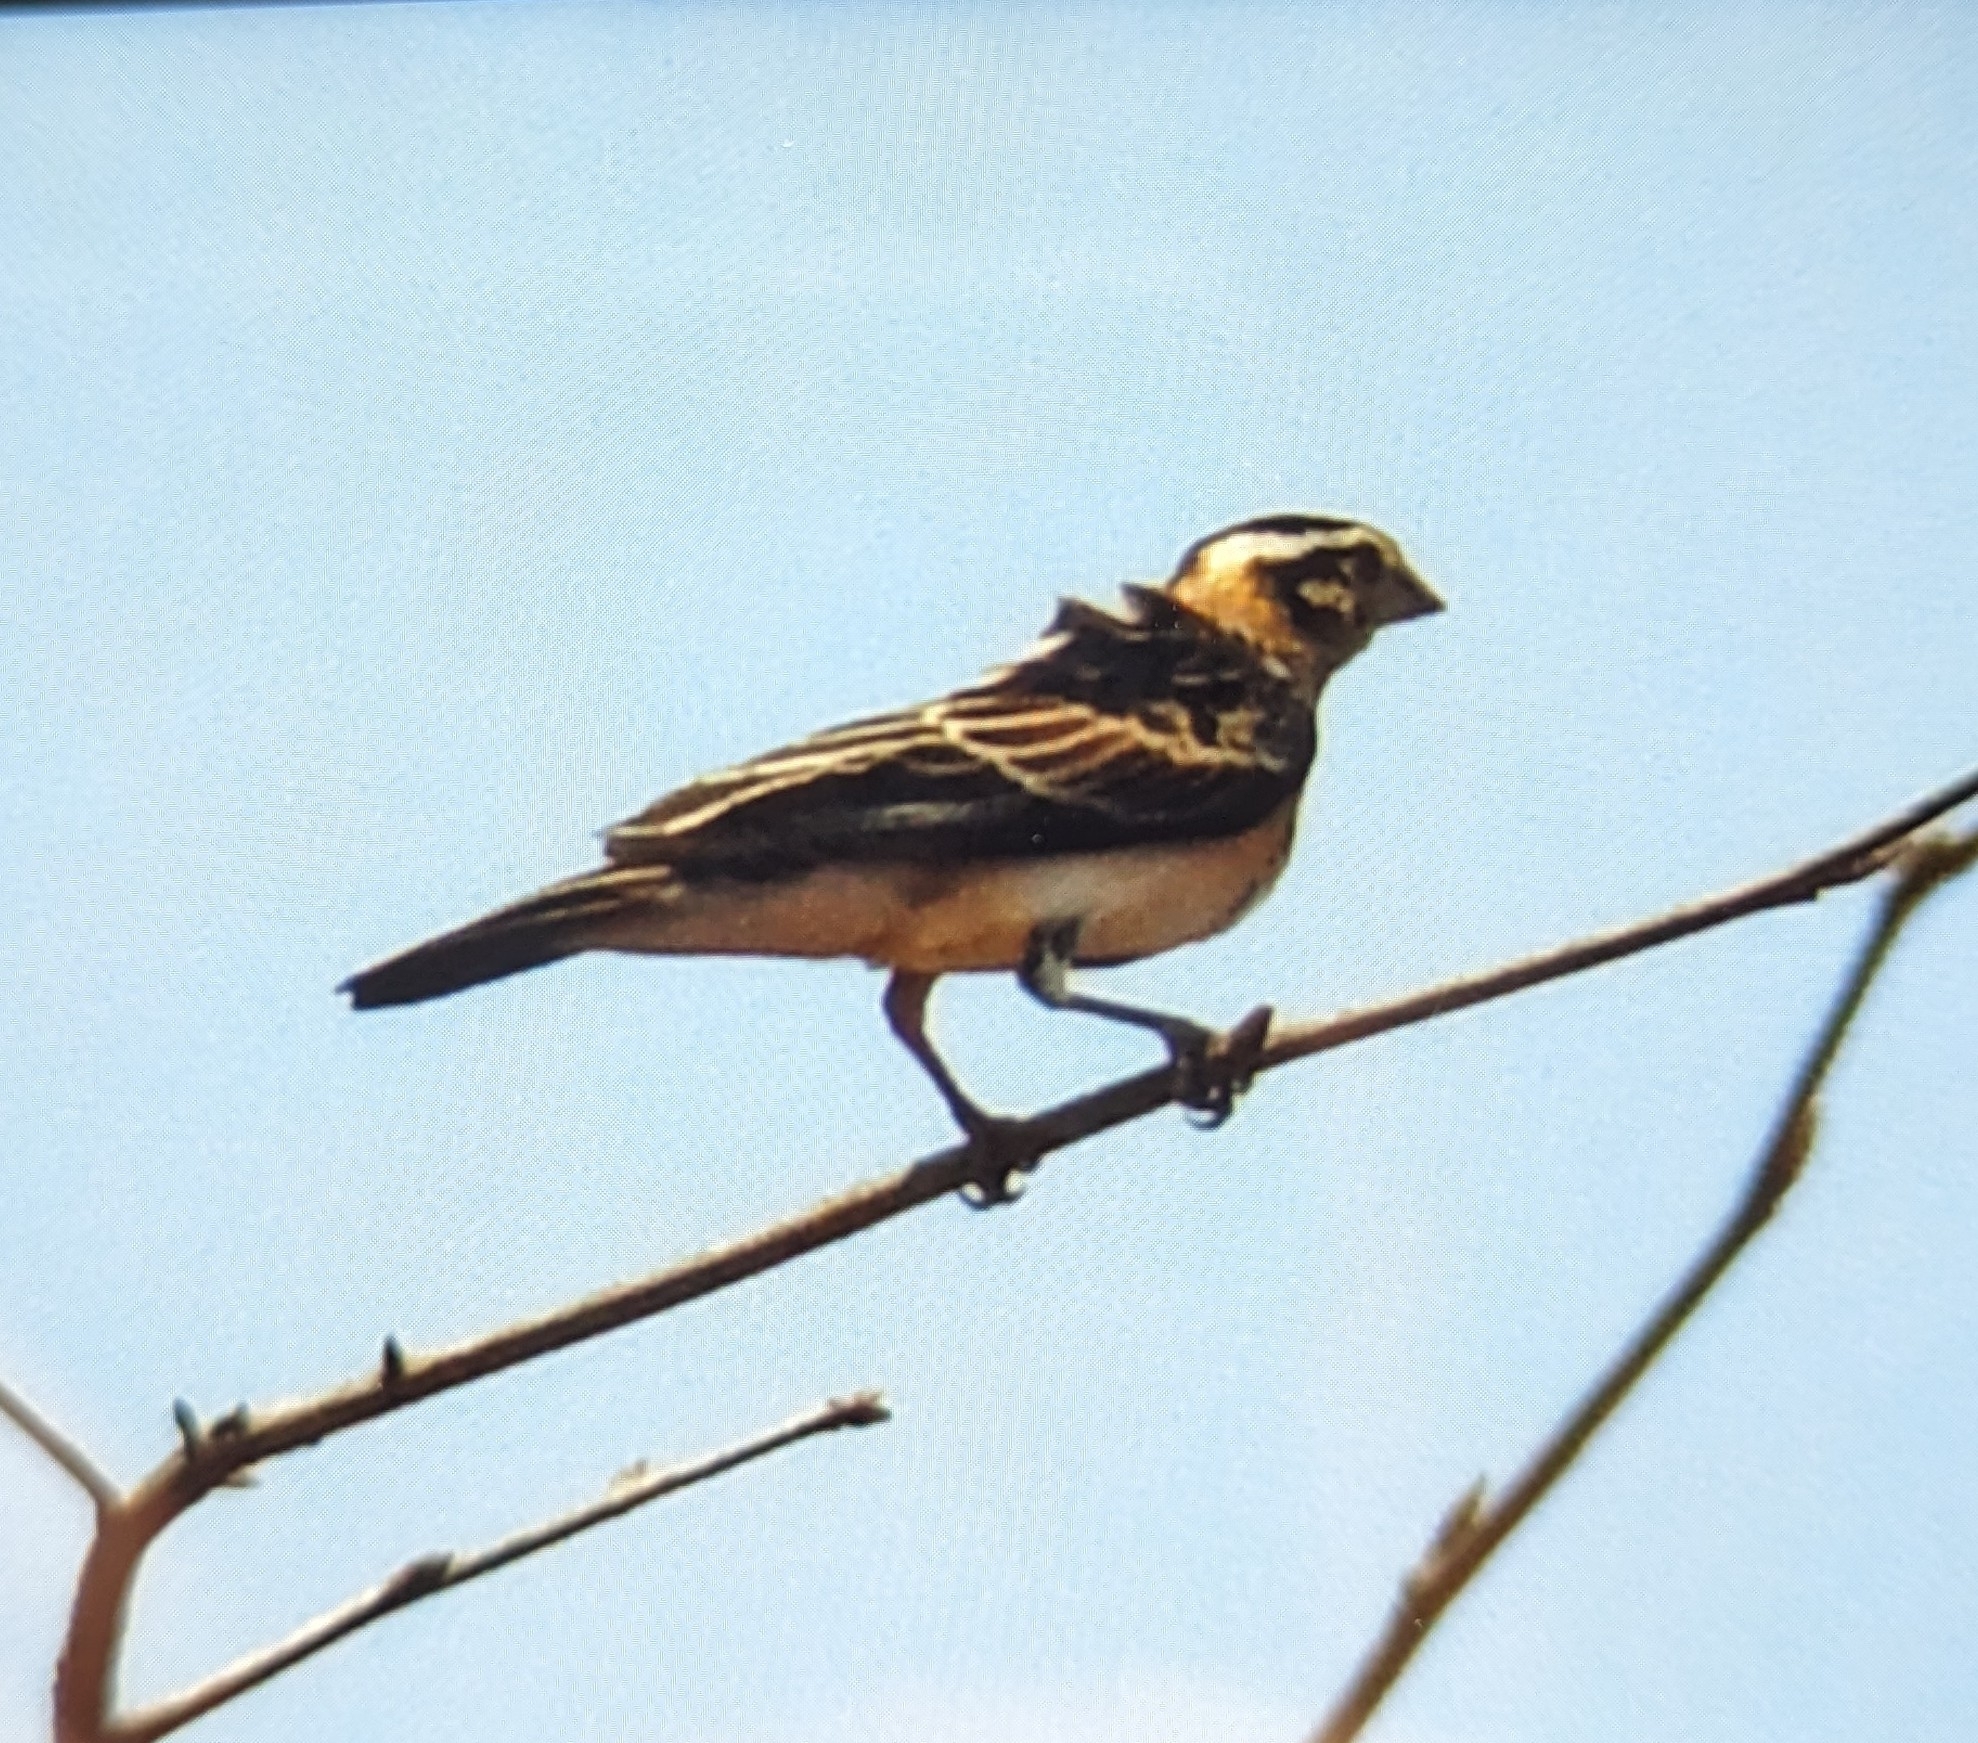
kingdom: Animalia
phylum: Chordata
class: Aves
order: Passeriformes
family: Viduidae
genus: Vidua
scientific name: Vidua paradisaea
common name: Long-tailed paradise whydah
